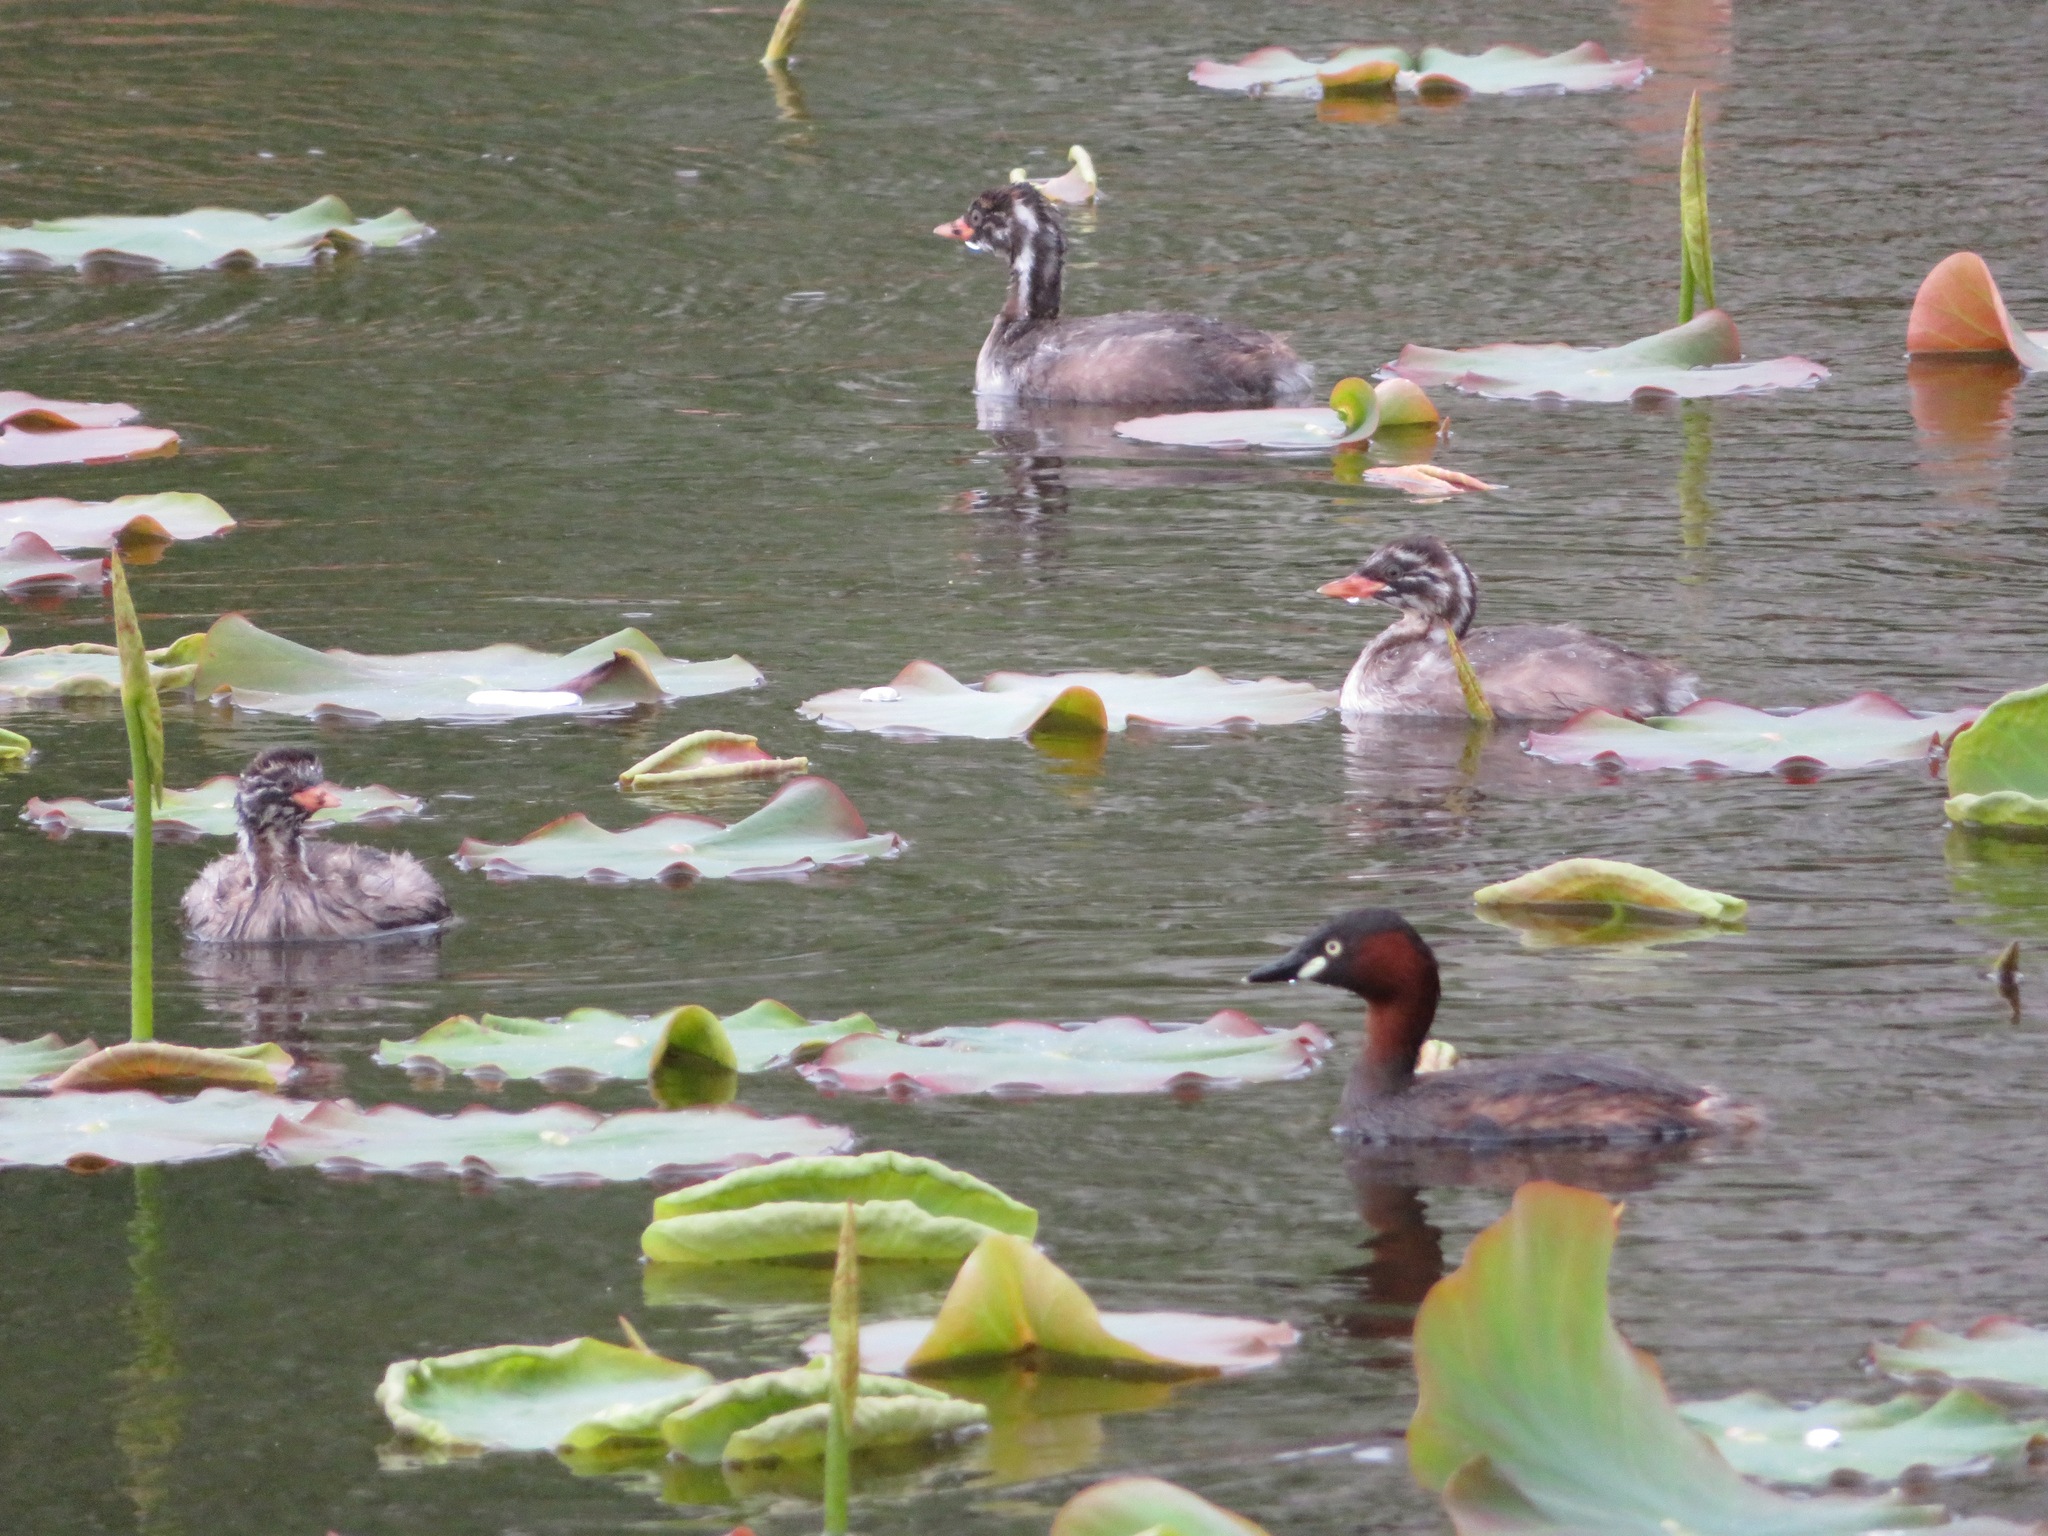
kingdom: Animalia
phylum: Chordata
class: Aves
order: Podicipediformes
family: Podicipedidae
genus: Tachybaptus
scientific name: Tachybaptus ruficollis
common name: Little grebe
